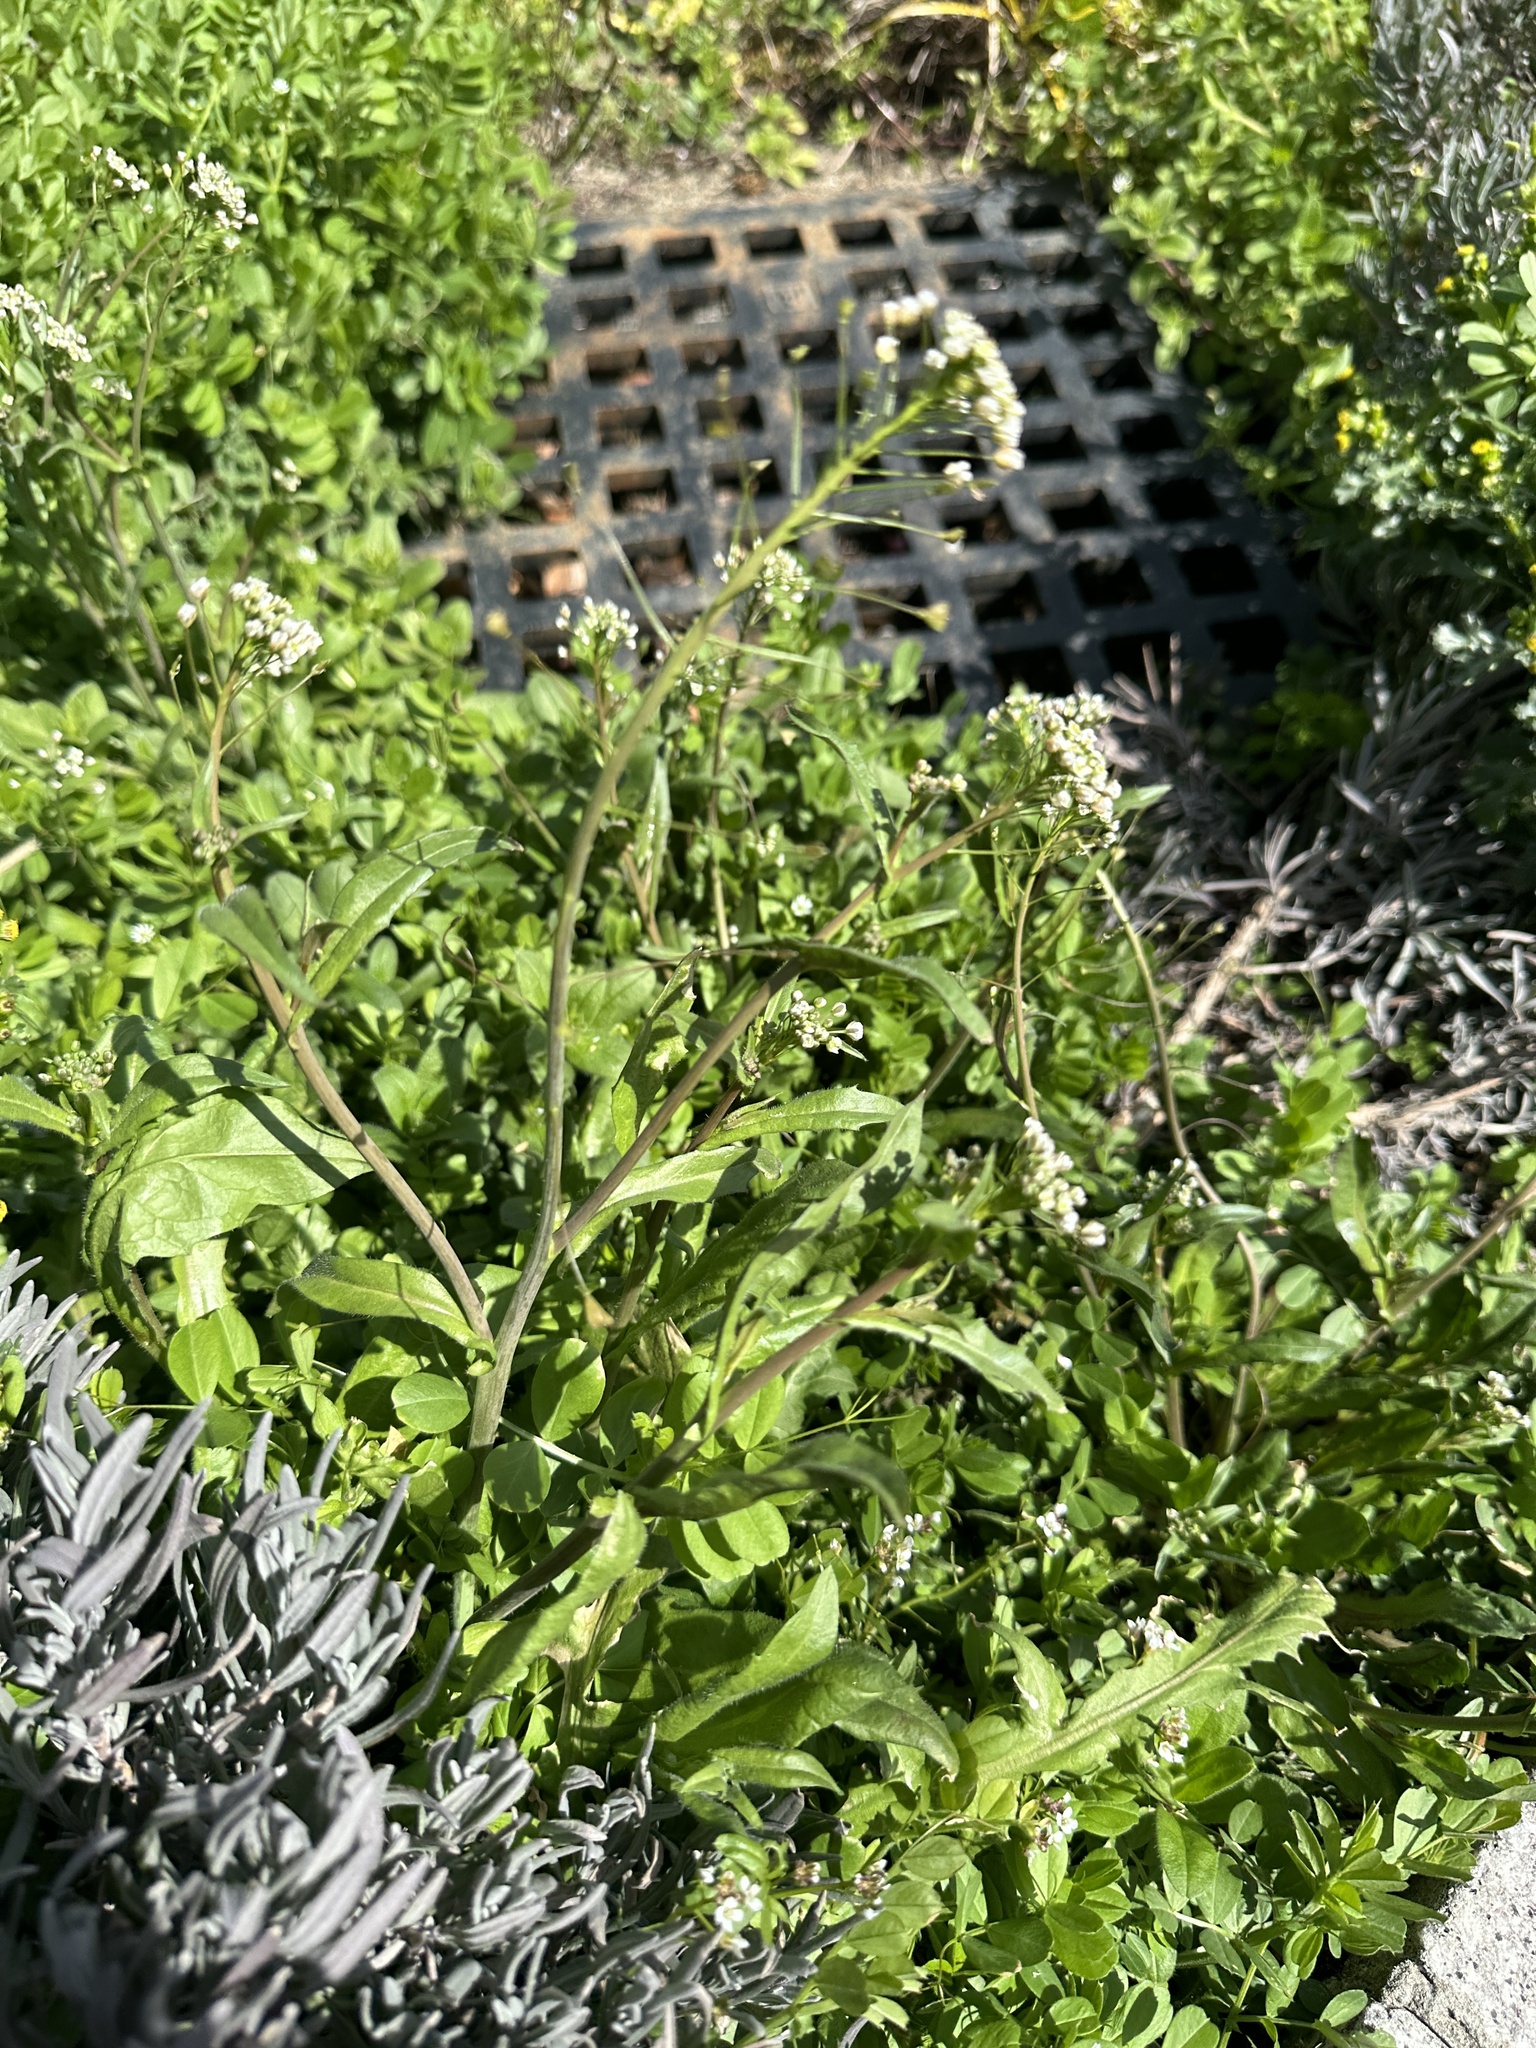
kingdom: Plantae
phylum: Tracheophyta
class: Magnoliopsida
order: Brassicales
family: Brassicaceae
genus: Capsella
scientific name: Capsella bursa-pastoris
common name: Shepherd's purse
